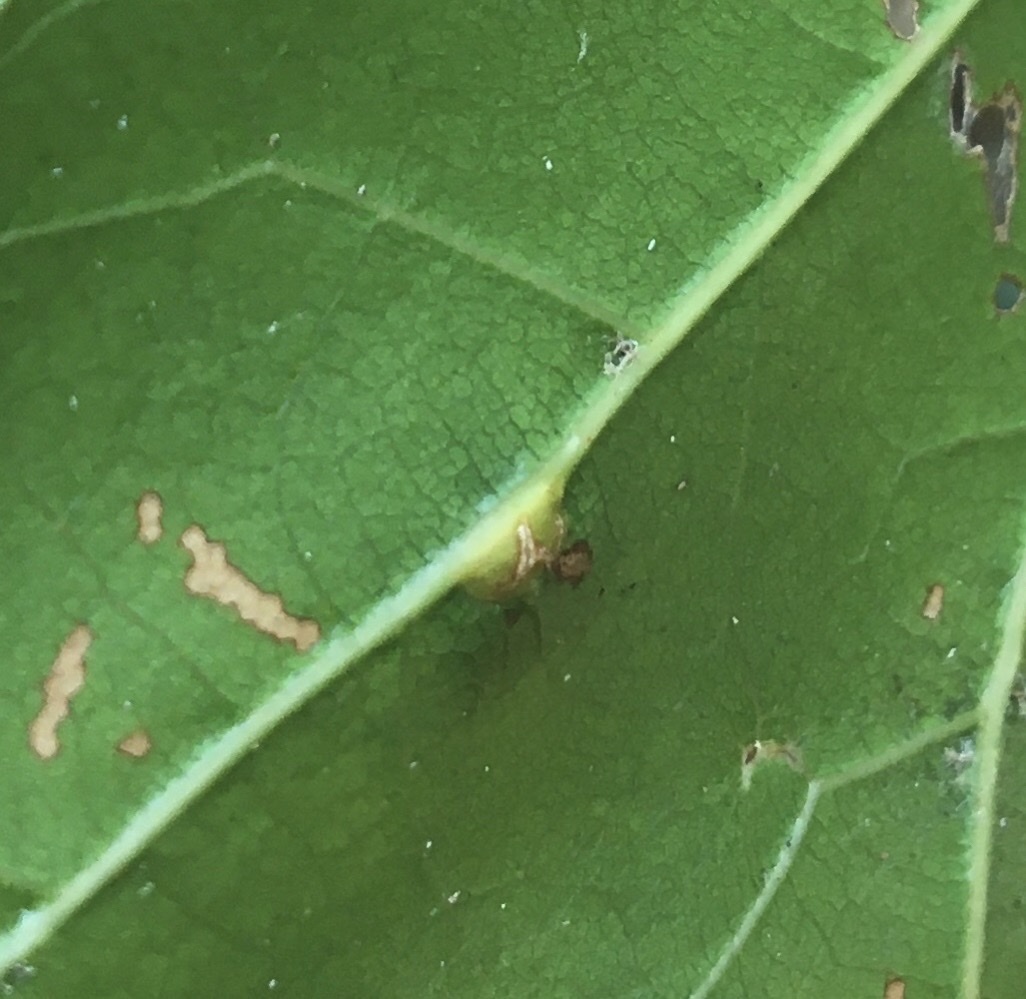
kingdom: Animalia
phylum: Arthropoda
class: Insecta
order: Diptera
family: Cecidomyiidae
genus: Polystepha
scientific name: Polystepha pilulae
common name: Oak leaf gall midge
